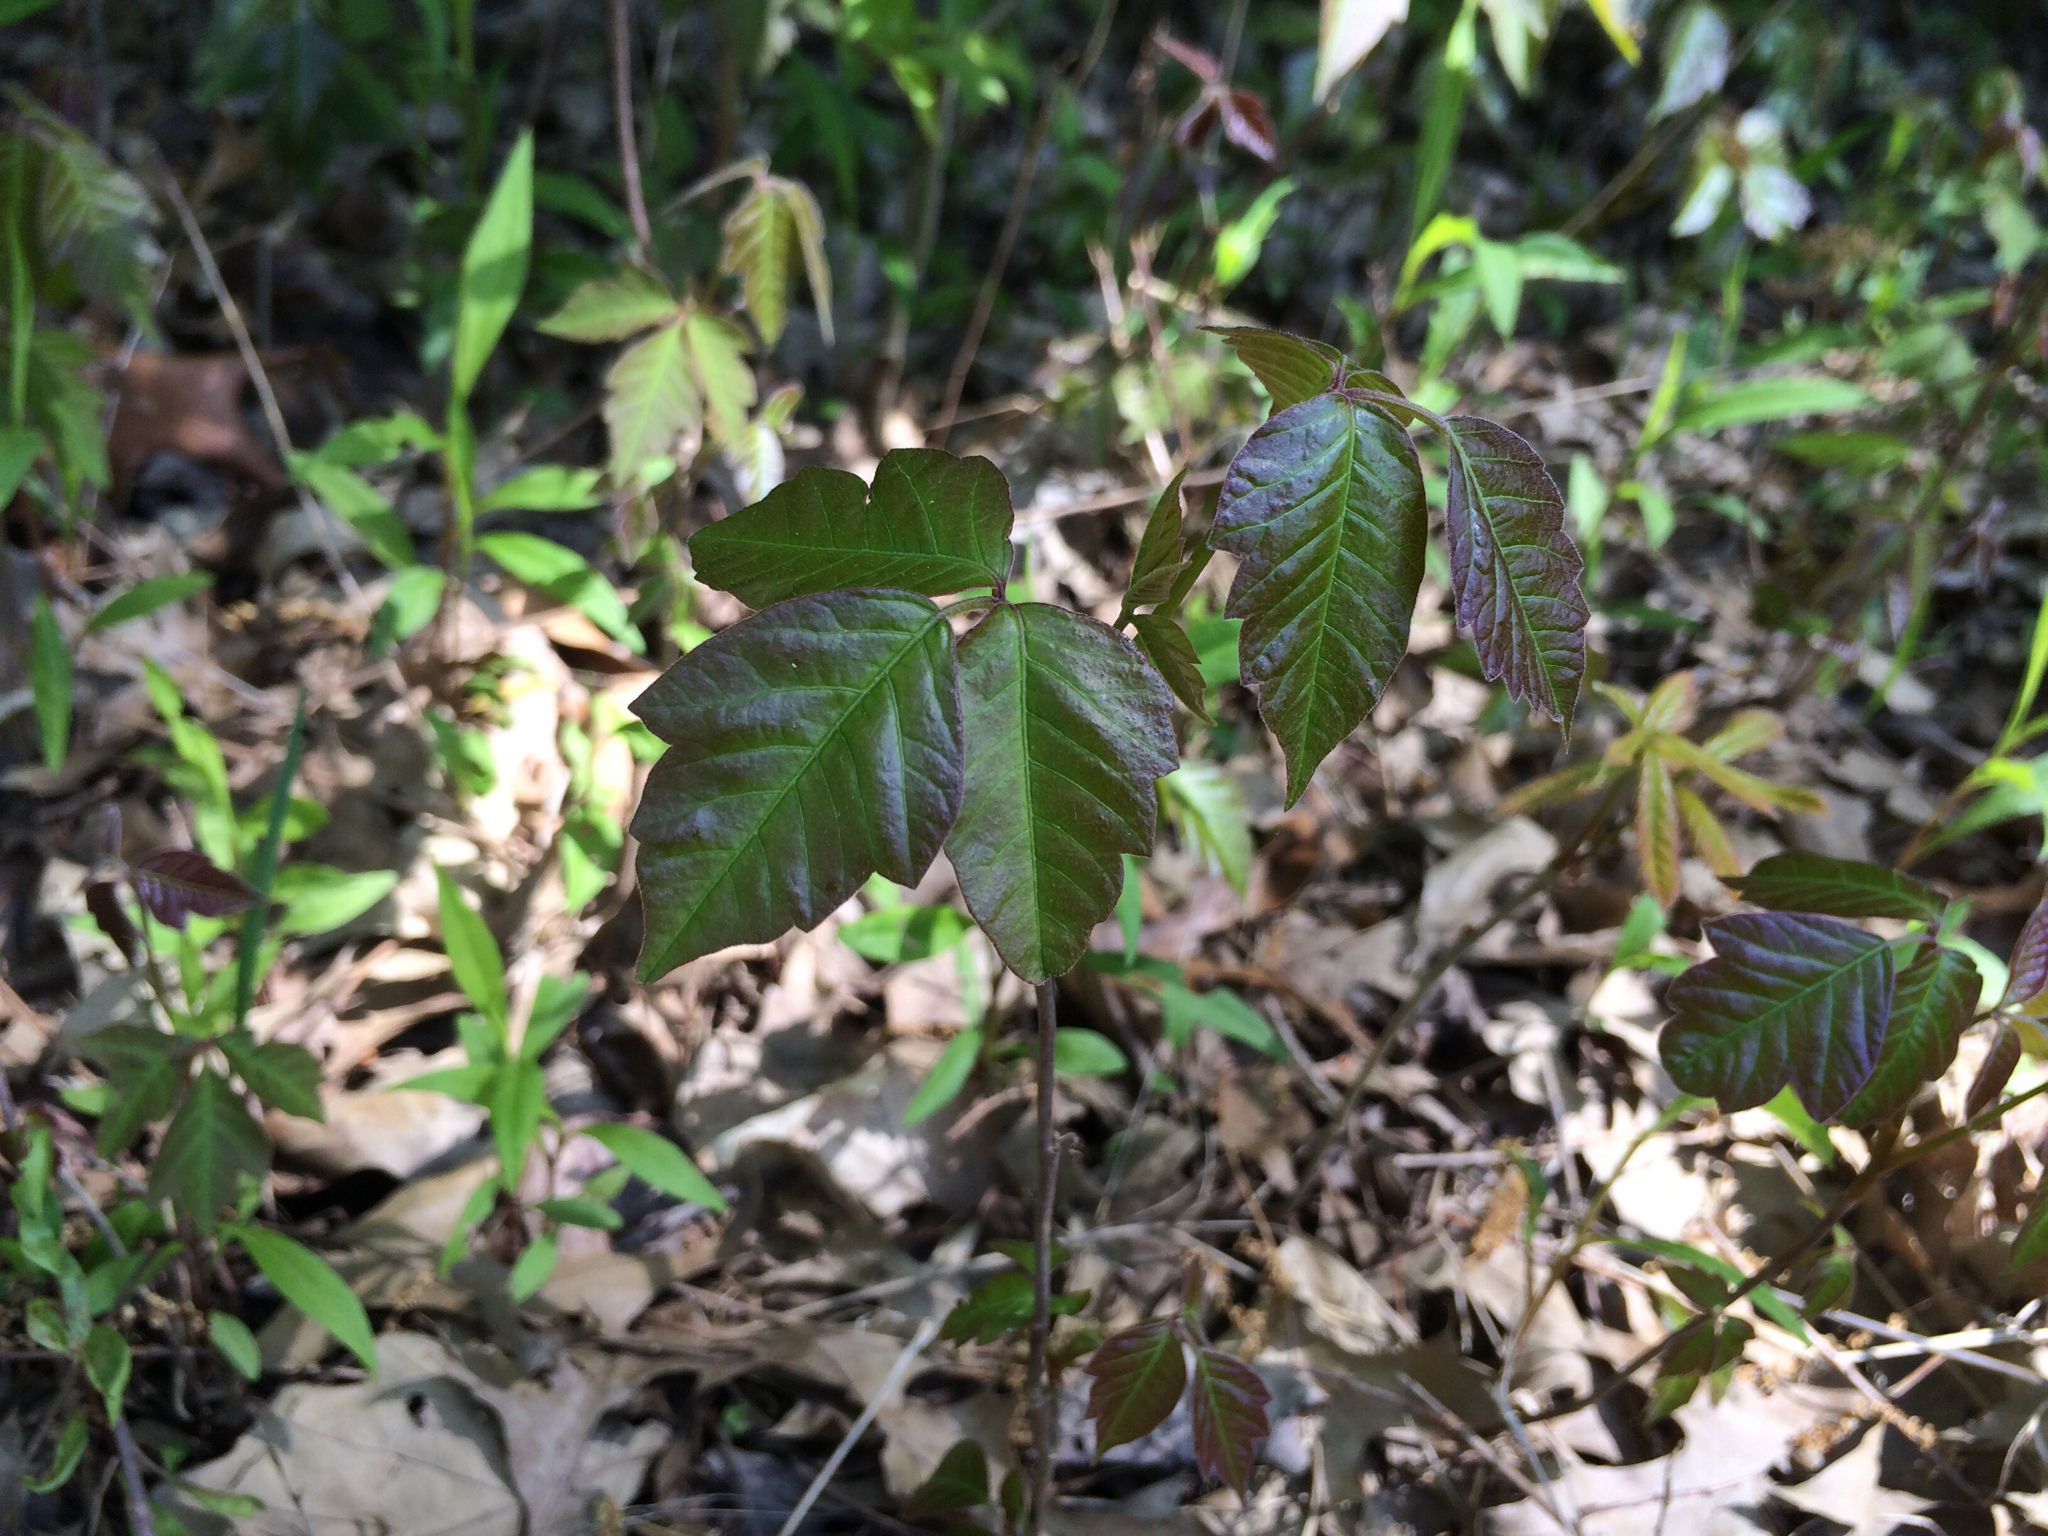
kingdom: Plantae
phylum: Tracheophyta
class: Magnoliopsida
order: Sapindales
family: Anacardiaceae
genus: Toxicodendron
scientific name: Toxicodendron radicans
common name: Poison ivy
